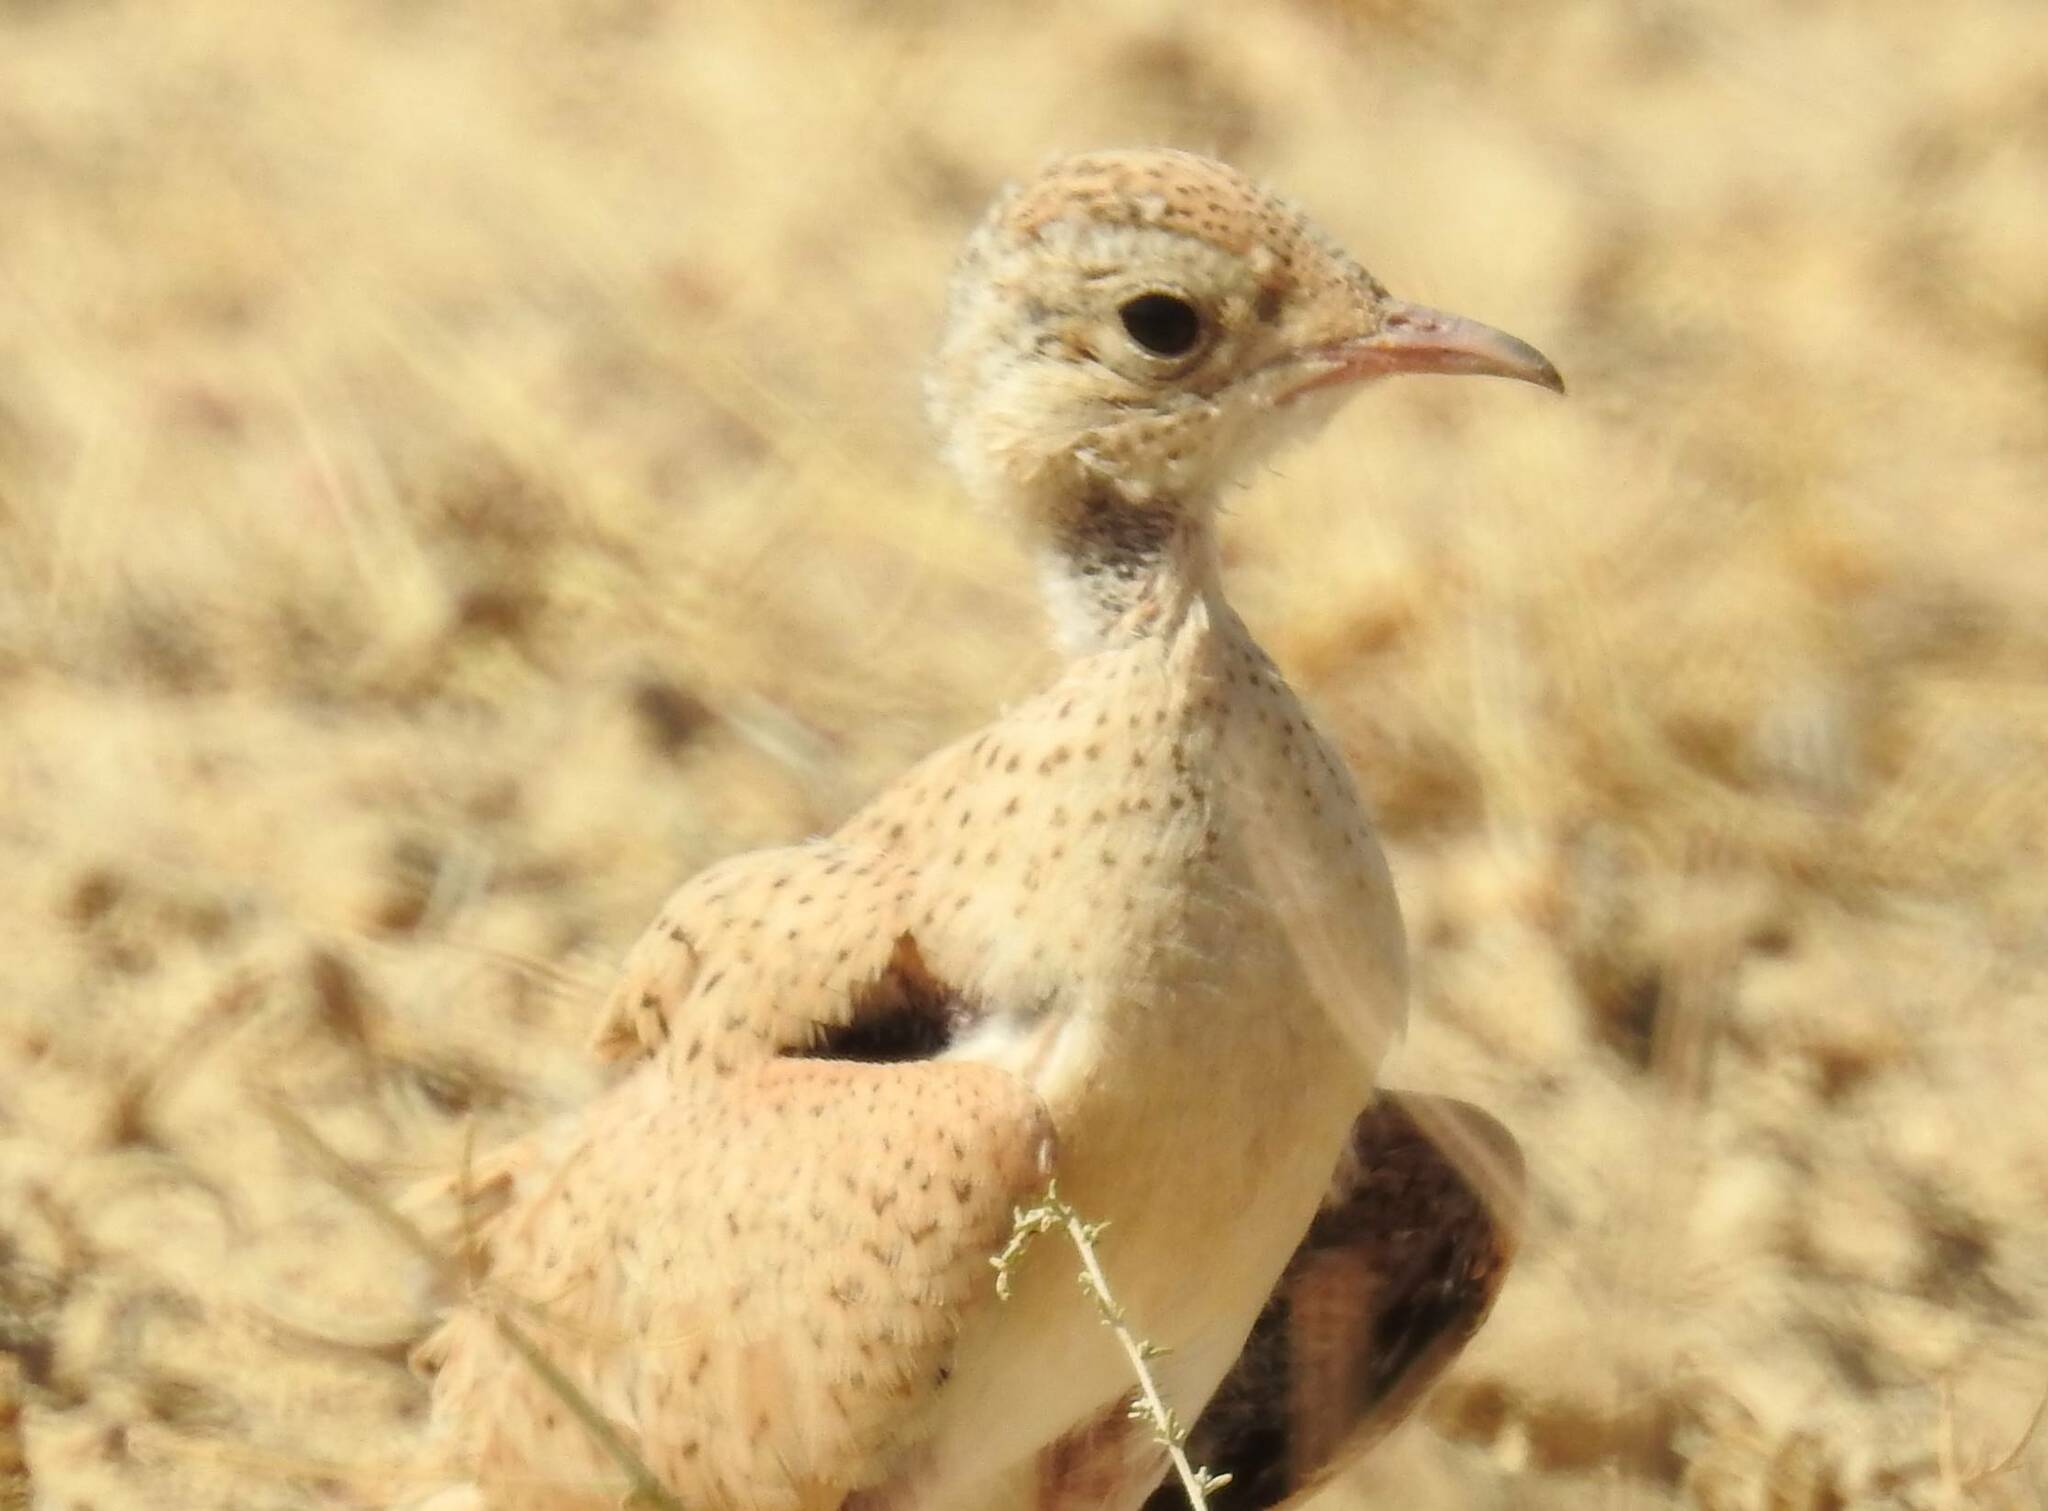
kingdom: Animalia
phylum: Chordata
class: Aves
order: Charadriiformes
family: Glareolidae
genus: Cursorius
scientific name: Cursorius cursor
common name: Cream-colored courser
